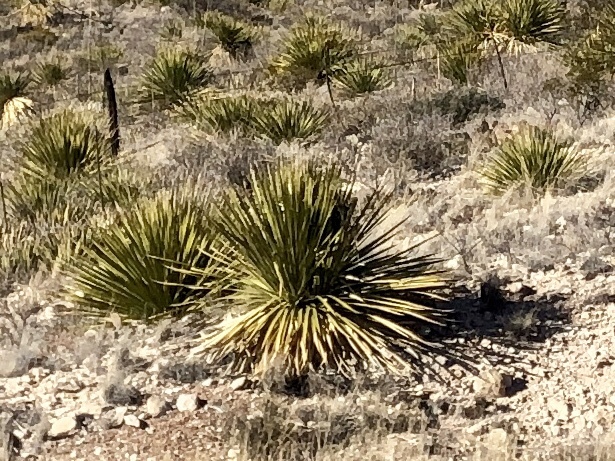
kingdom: Plantae
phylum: Tracheophyta
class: Liliopsida
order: Asparagales
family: Asparagaceae
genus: Dasylirion
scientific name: Dasylirion wheeleri
